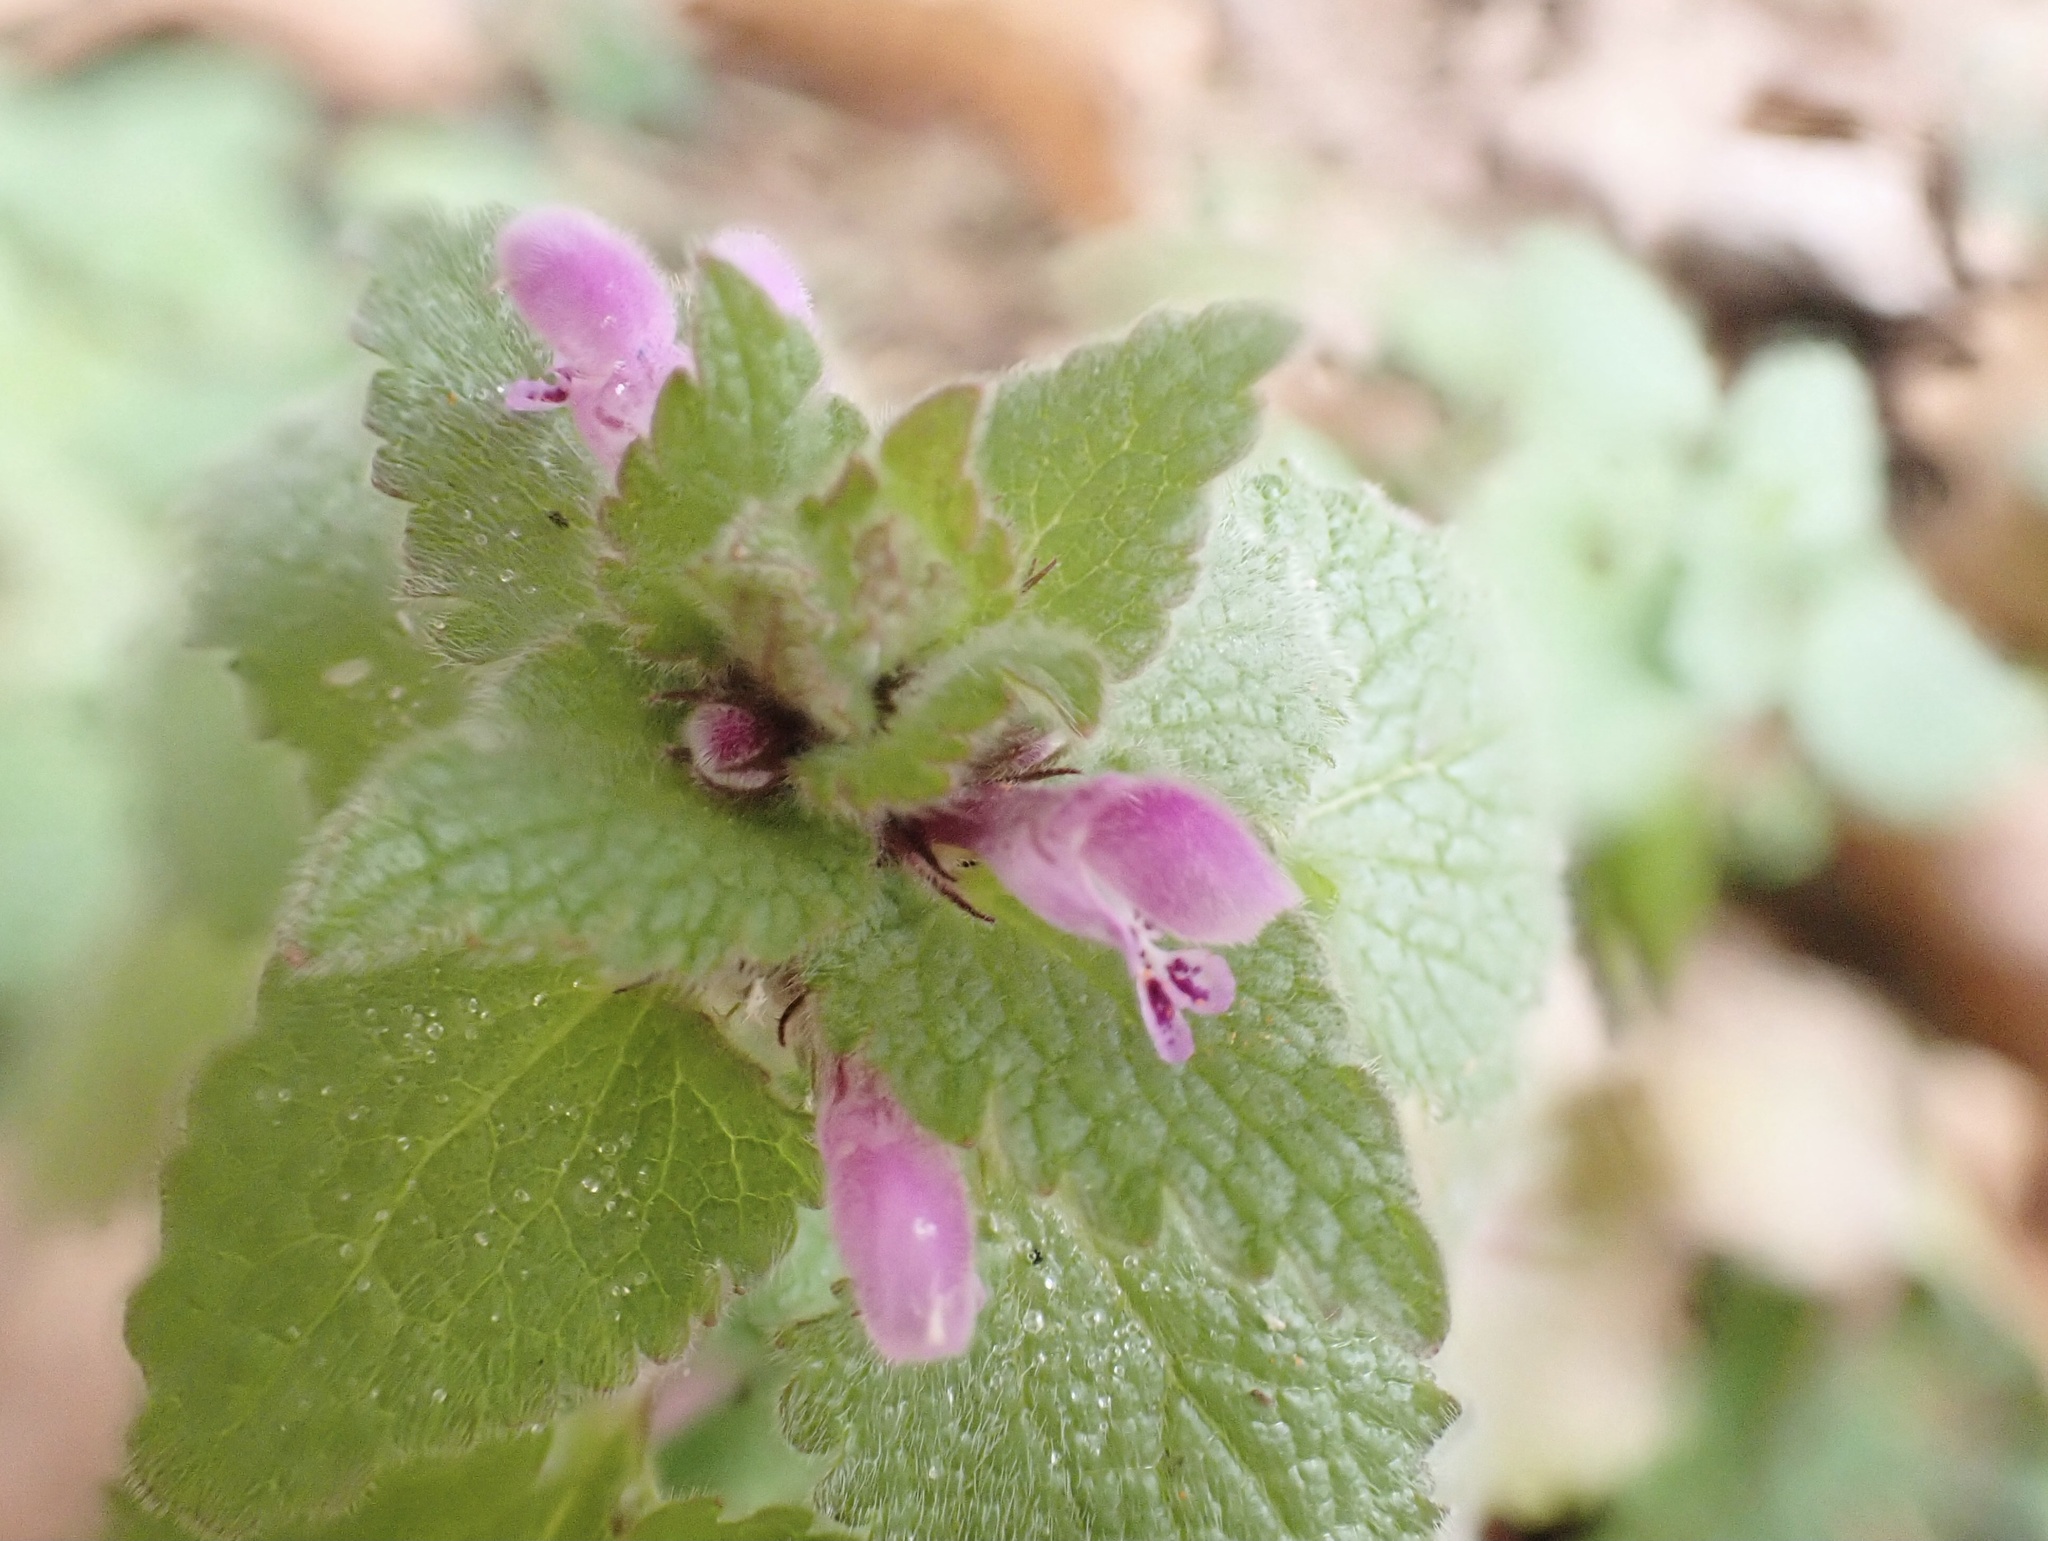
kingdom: Plantae
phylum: Tracheophyta
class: Magnoliopsida
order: Lamiales
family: Lamiaceae
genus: Lamium
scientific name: Lamium purpureum
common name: Red dead-nettle
